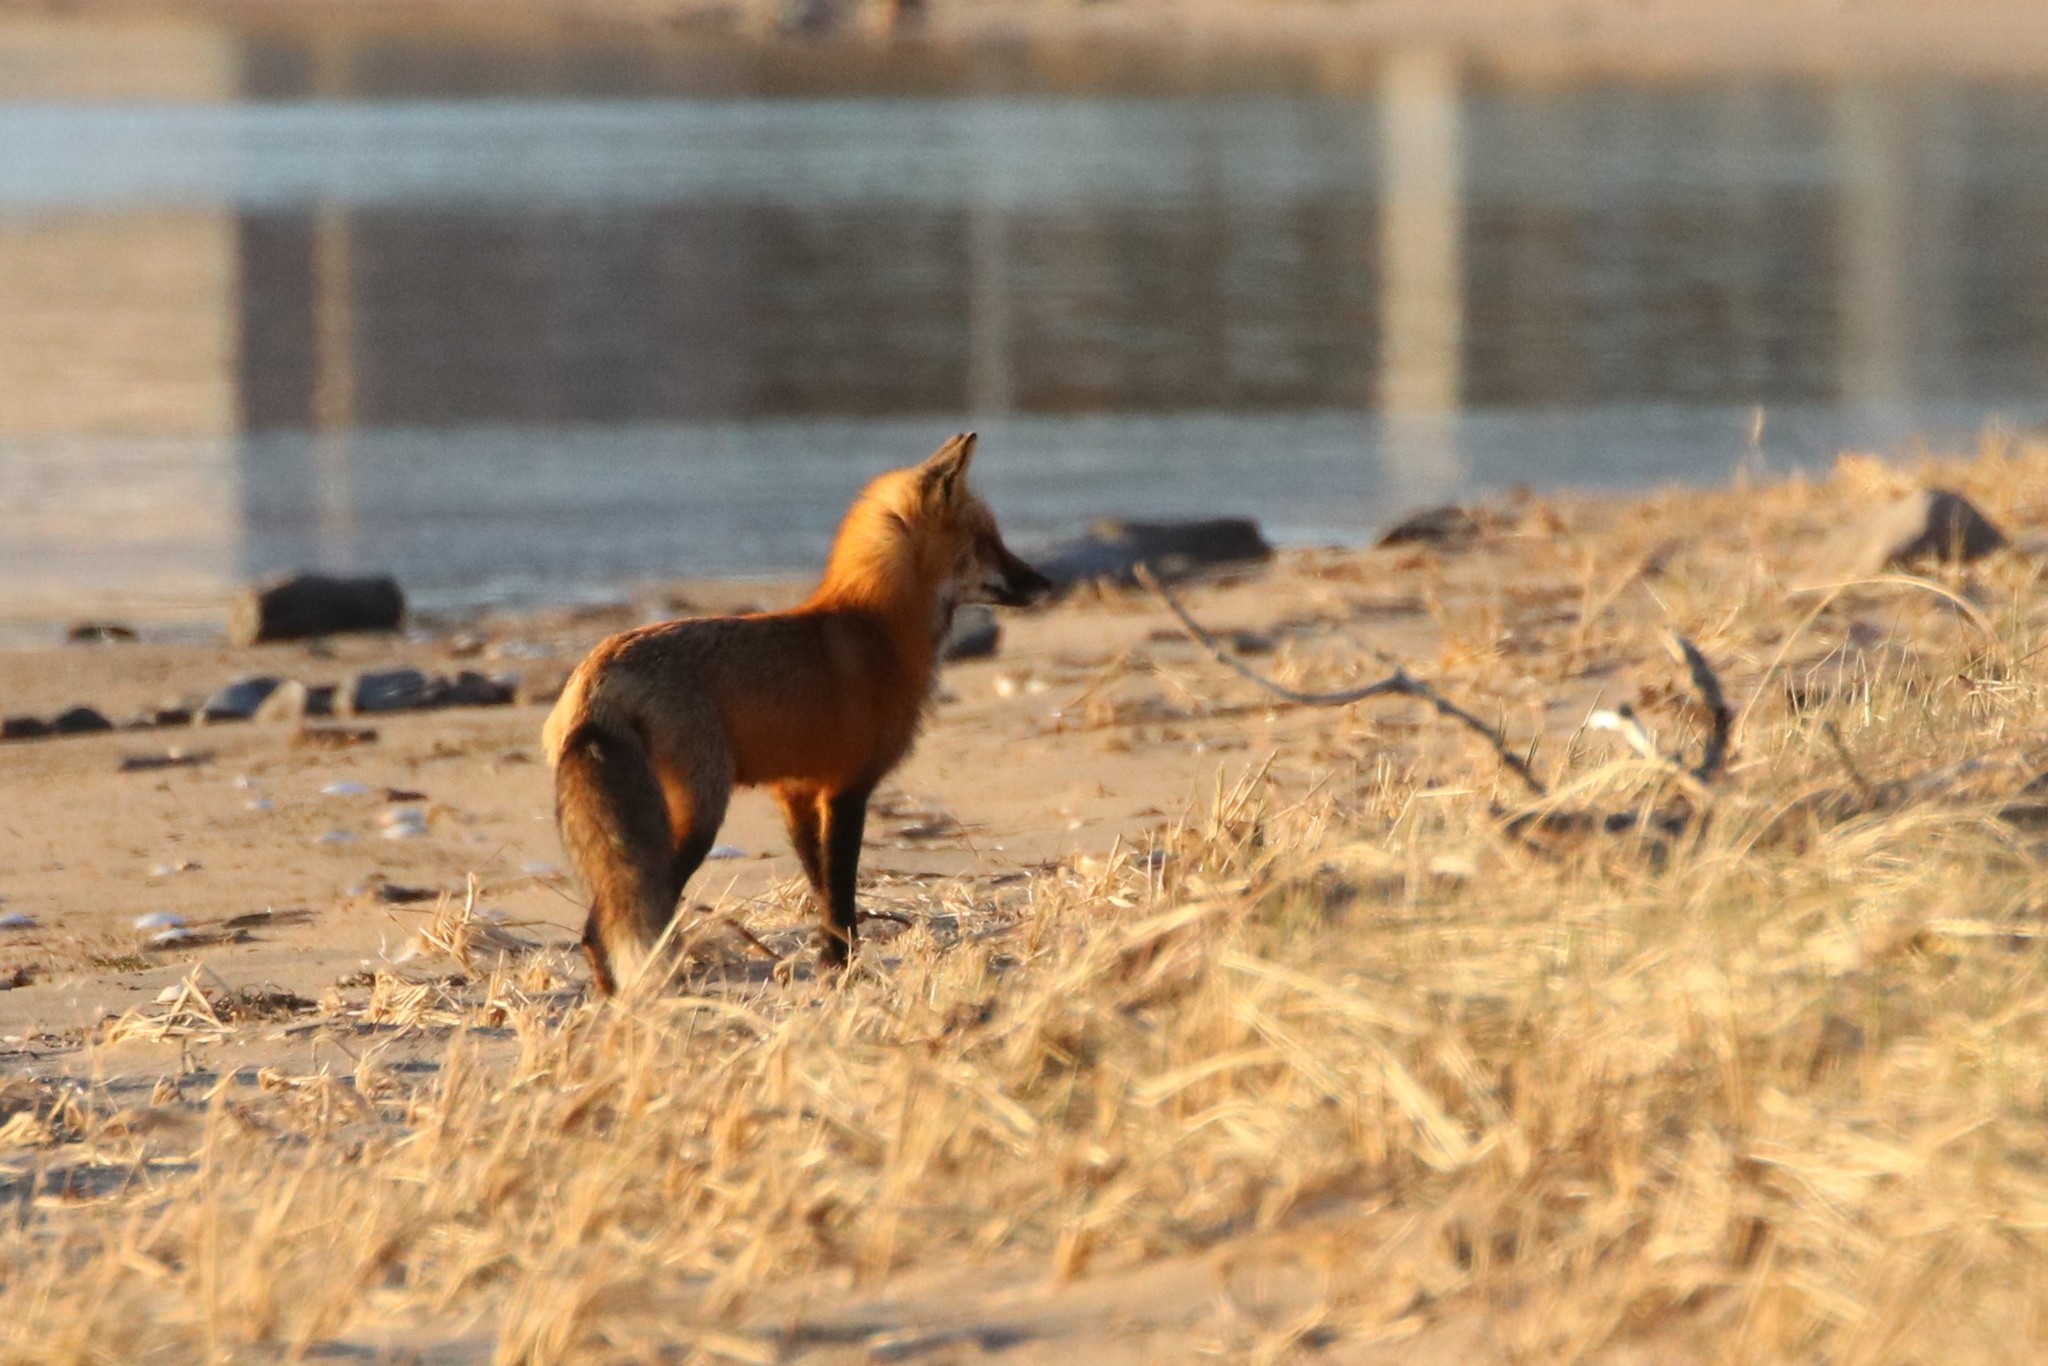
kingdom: Animalia
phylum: Chordata
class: Mammalia
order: Carnivora
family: Canidae
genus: Vulpes
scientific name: Vulpes vulpes
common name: Red fox
